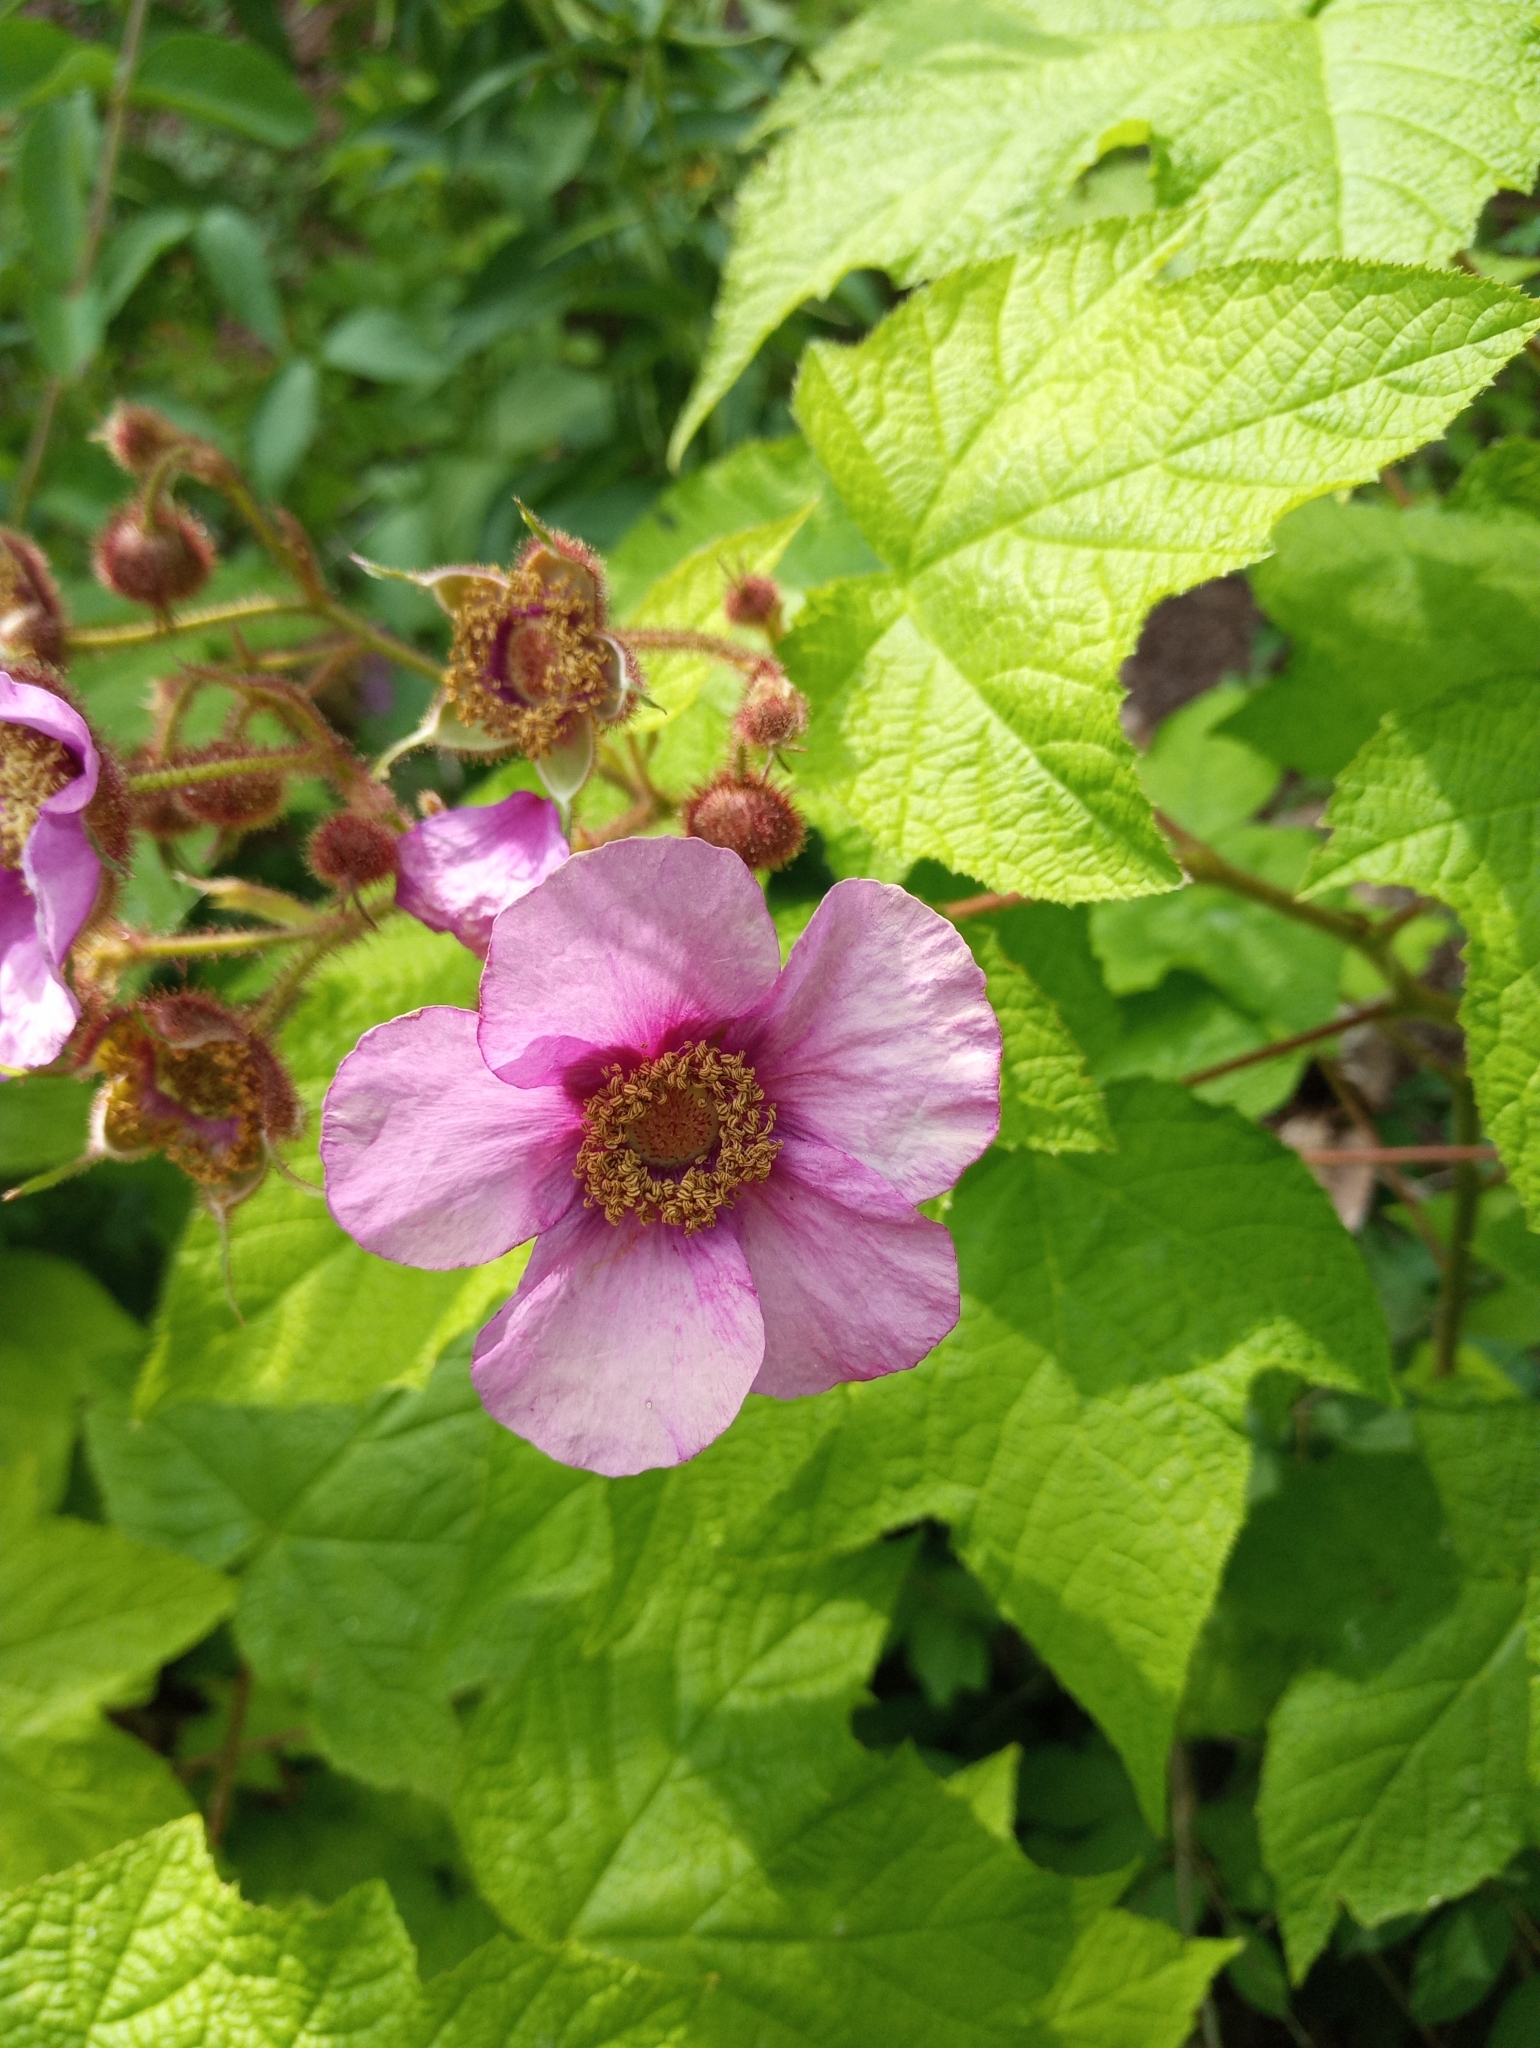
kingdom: Plantae
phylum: Tracheophyta
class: Magnoliopsida
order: Rosales
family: Rosaceae
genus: Rubus
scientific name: Rubus odoratus
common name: Purple-flowered raspberry
